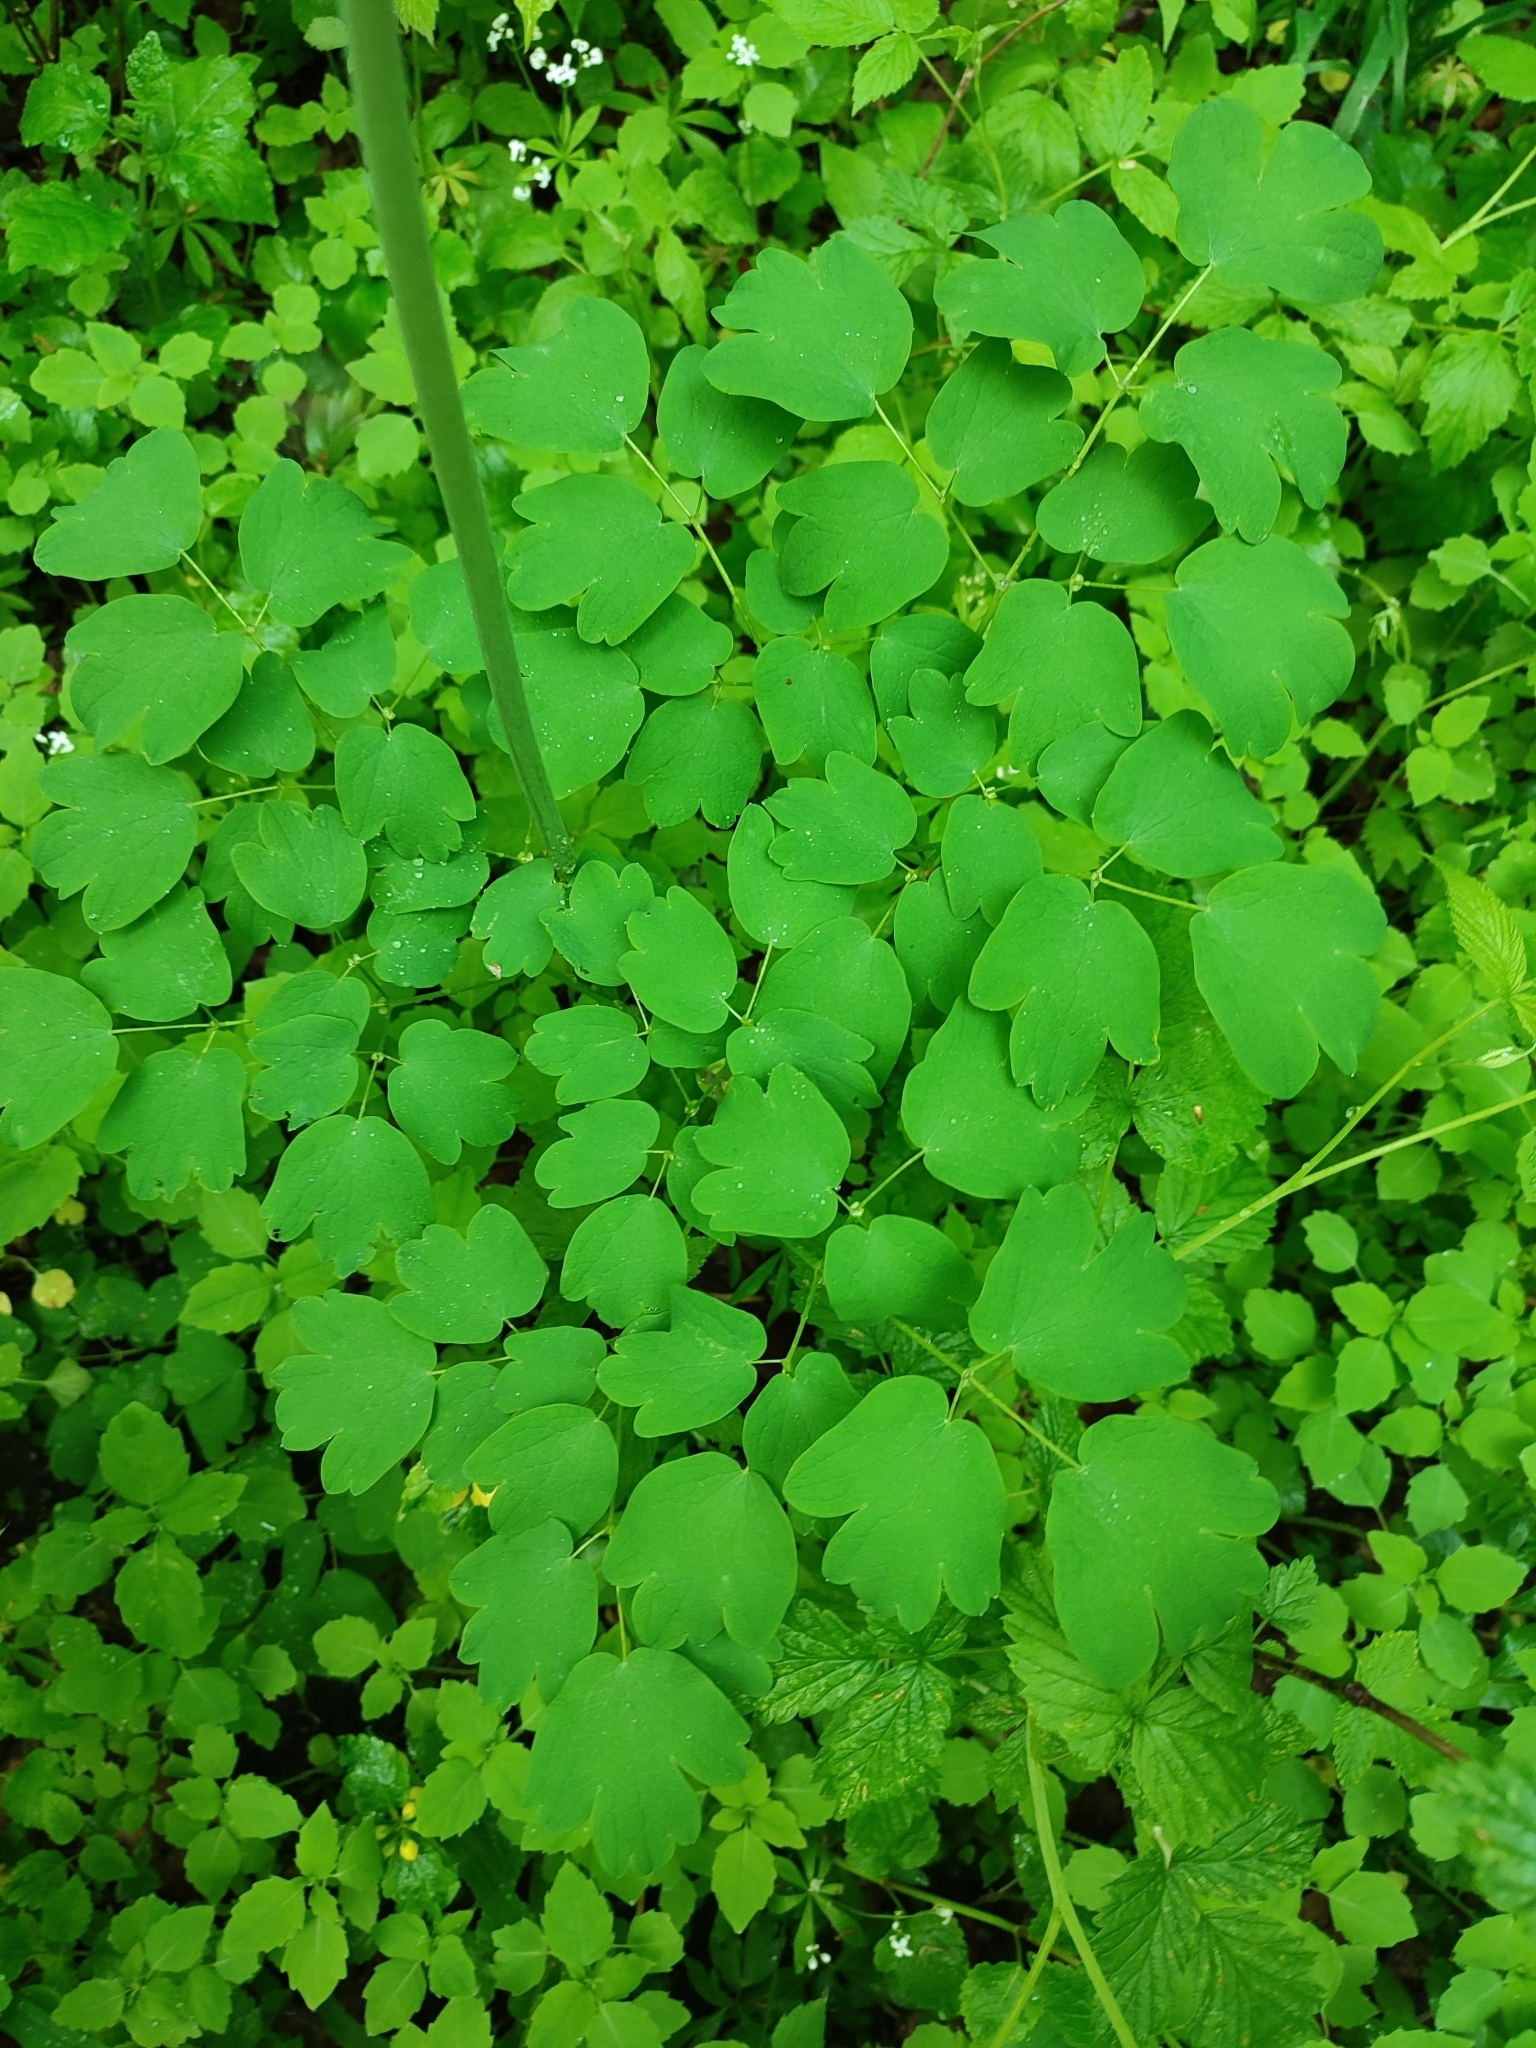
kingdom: Plantae
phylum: Tracheophyta
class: Magnoliopsida
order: Ranunculales
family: Ranunculaceae
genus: Thalictrum
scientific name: Thalictrum aquilegiifolium
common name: French meadow-rue
